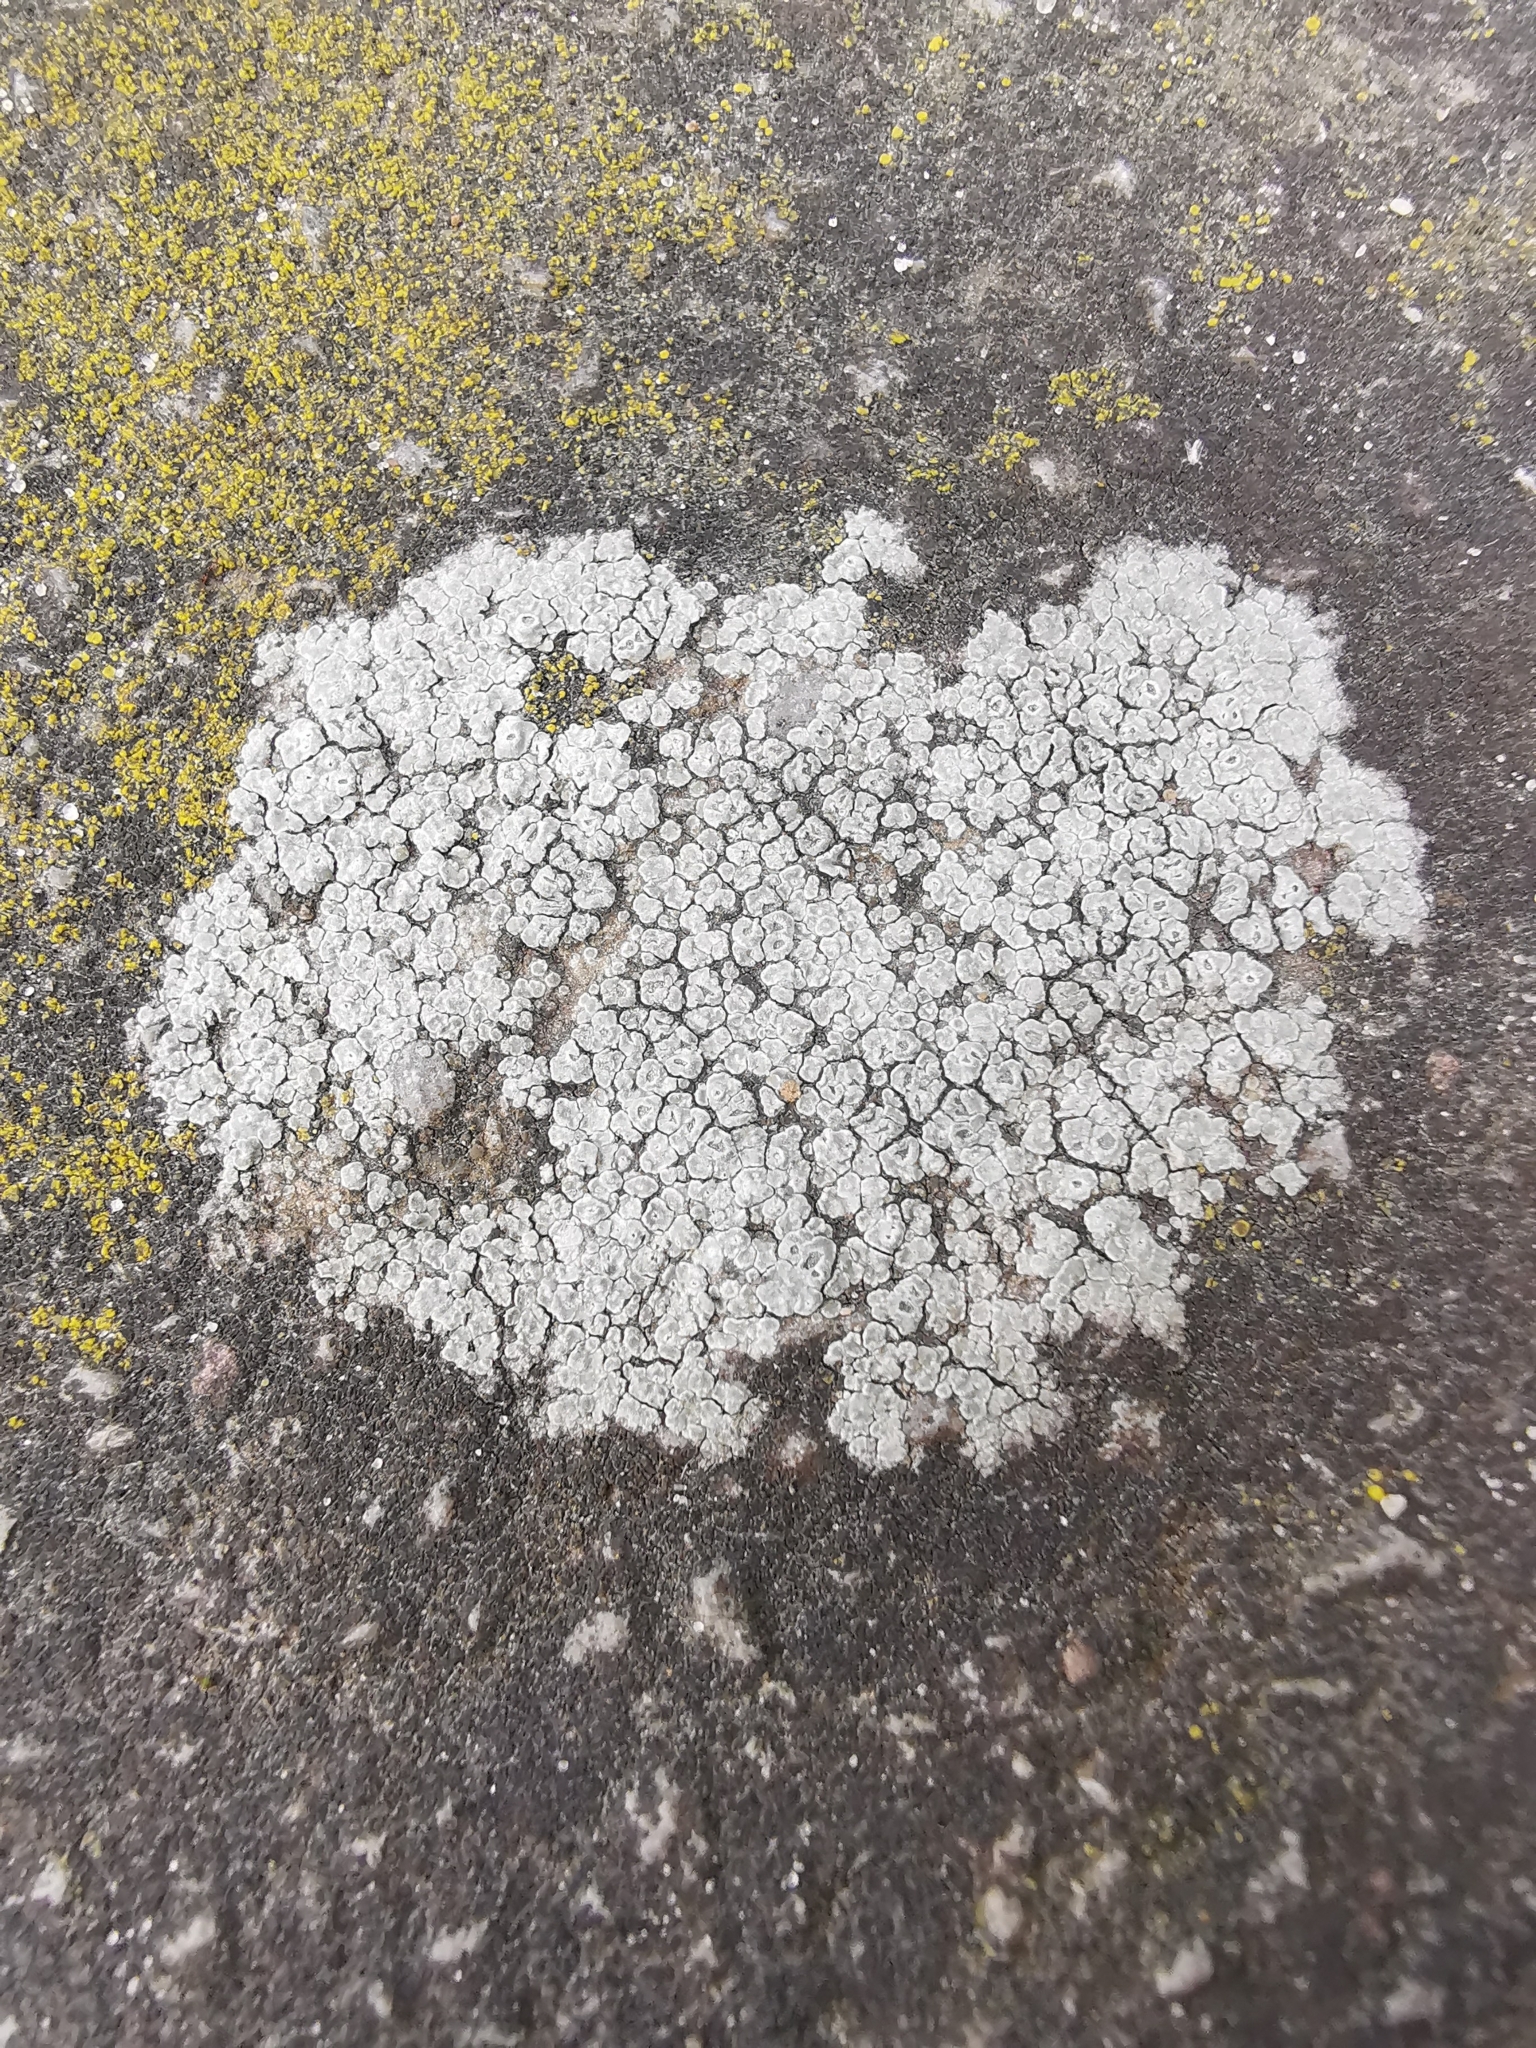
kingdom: Fungi
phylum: Ascomycota
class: Lecanoromycetes
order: Pertusariales
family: Megasporaceae
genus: Circinaria
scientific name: Circinaria contorta
